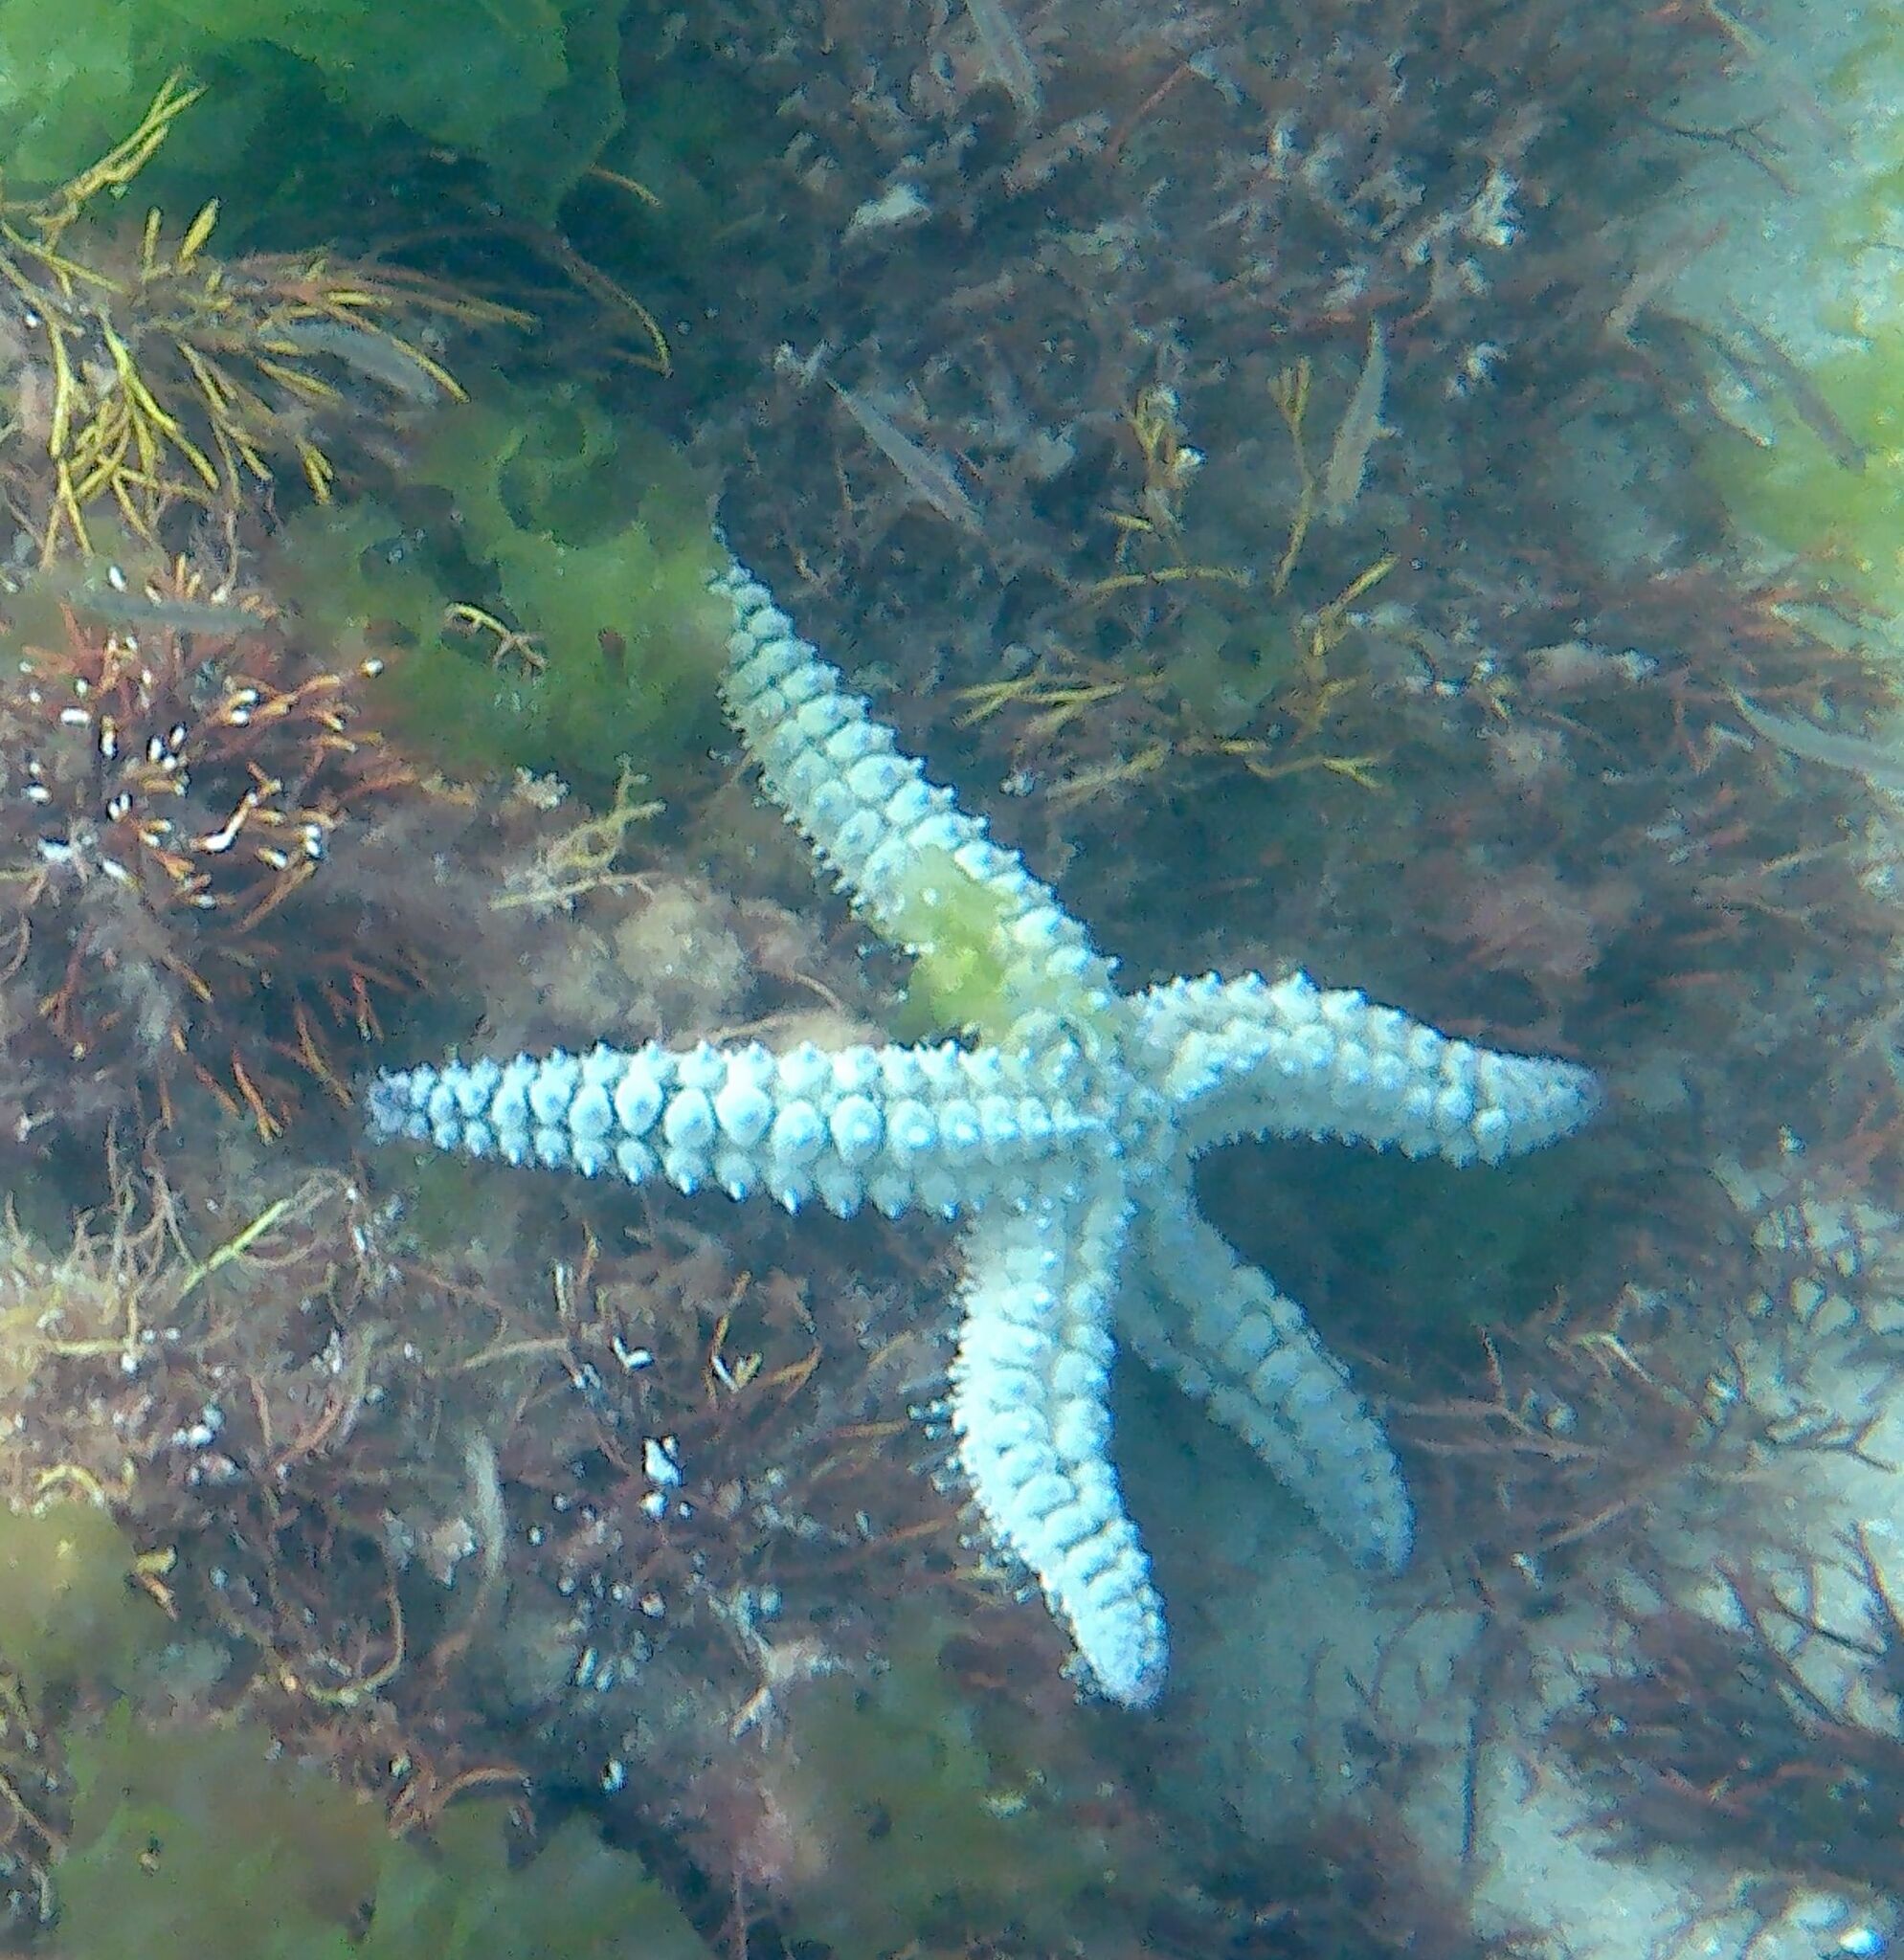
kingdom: Animalia
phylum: Echinodermata
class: Asteroidea
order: Forcipulatida
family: Asteriidae
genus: Marthasterias
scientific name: Marthasterias glacialis
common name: Spiny starfish
